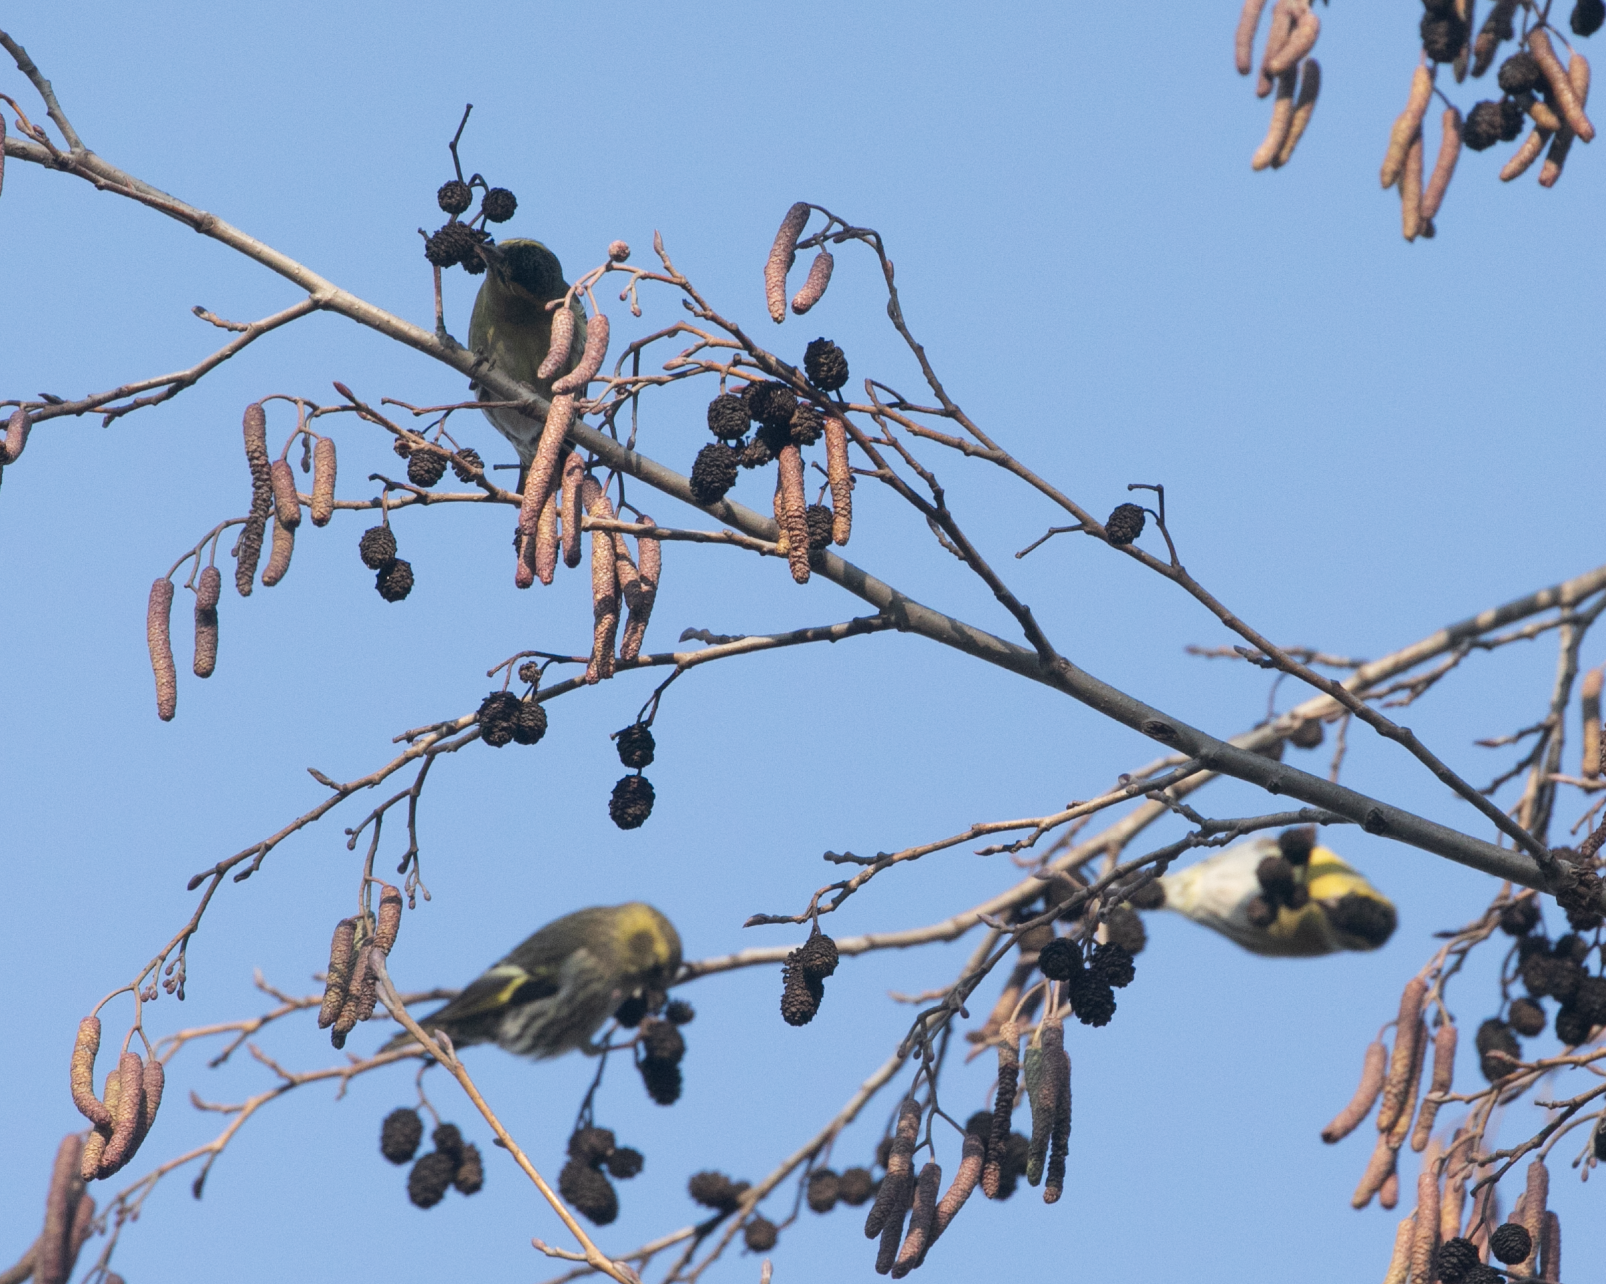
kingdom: Animalia
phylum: Chordata
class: Aves
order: Passeriformes
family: Fringillidae
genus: Spinus
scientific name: Spinus spinus
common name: Eurasian siskin
